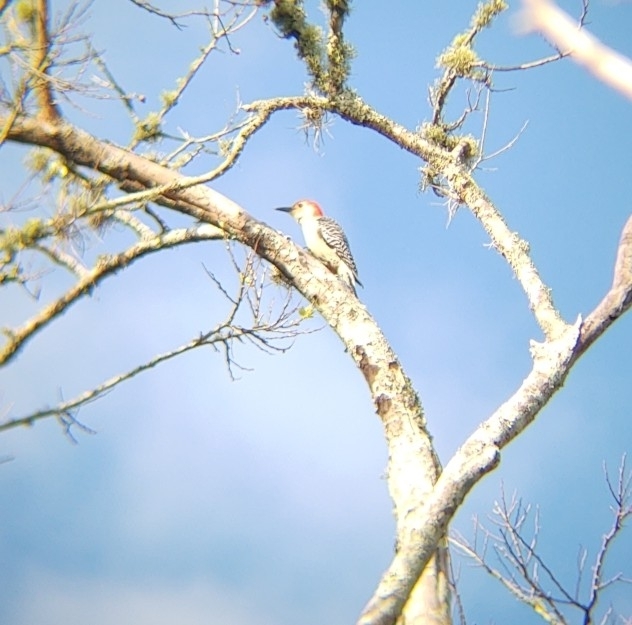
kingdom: Animalia
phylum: Chordata
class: Aves
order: Piciformes
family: Picidae
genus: Melanerpes
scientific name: Melanerpes carolinus
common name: Red-bellied woodpecker
